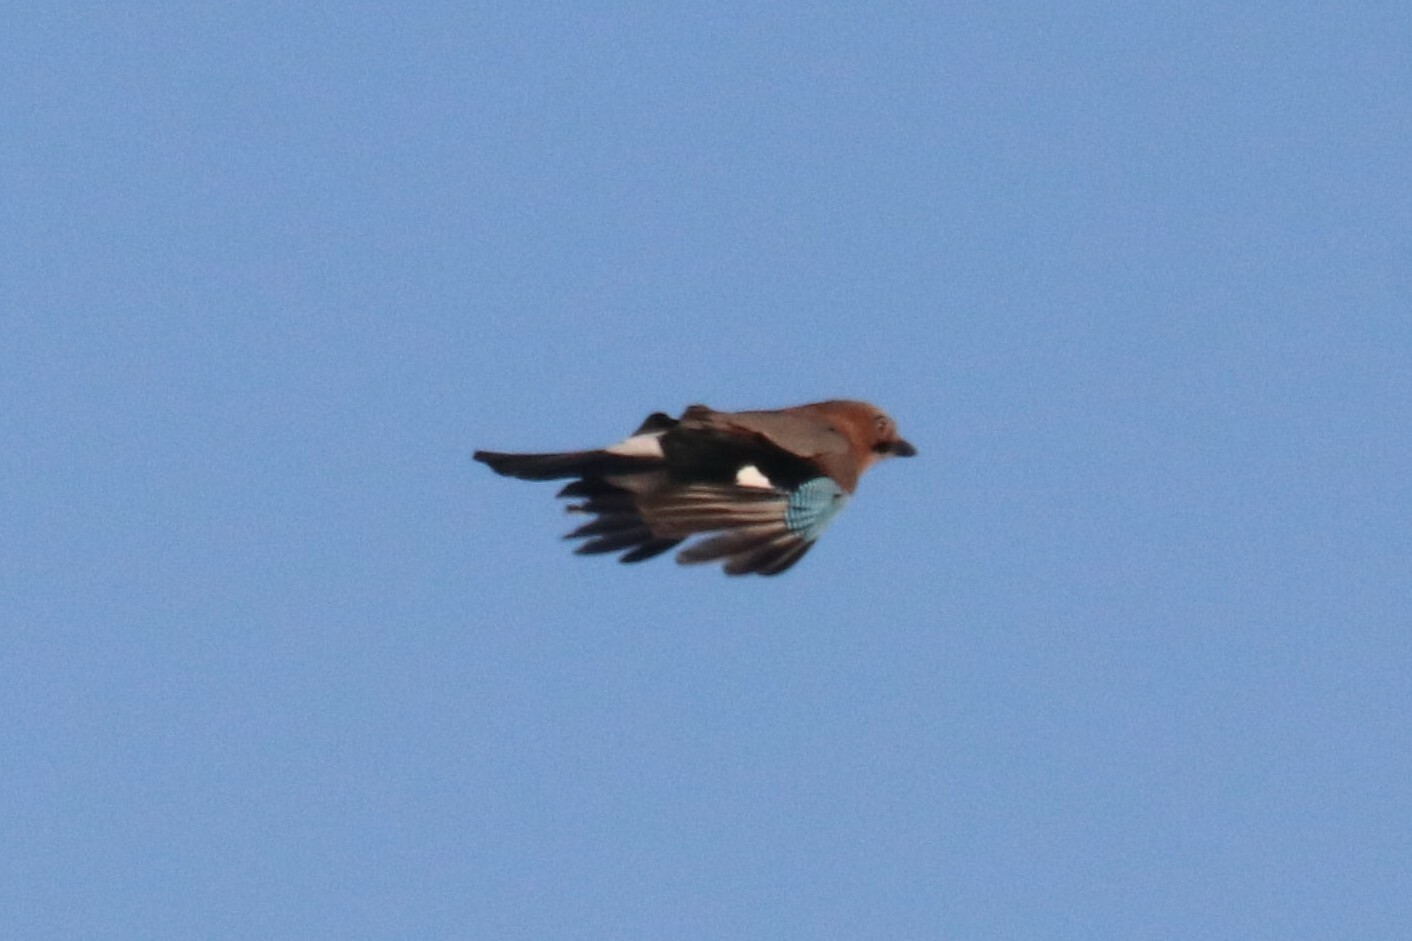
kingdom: Animalia
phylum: Chordata
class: Aves
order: Passeriformes
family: Corvidae
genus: Garrulus
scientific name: Garrulus glandarius
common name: Eurasian jay
